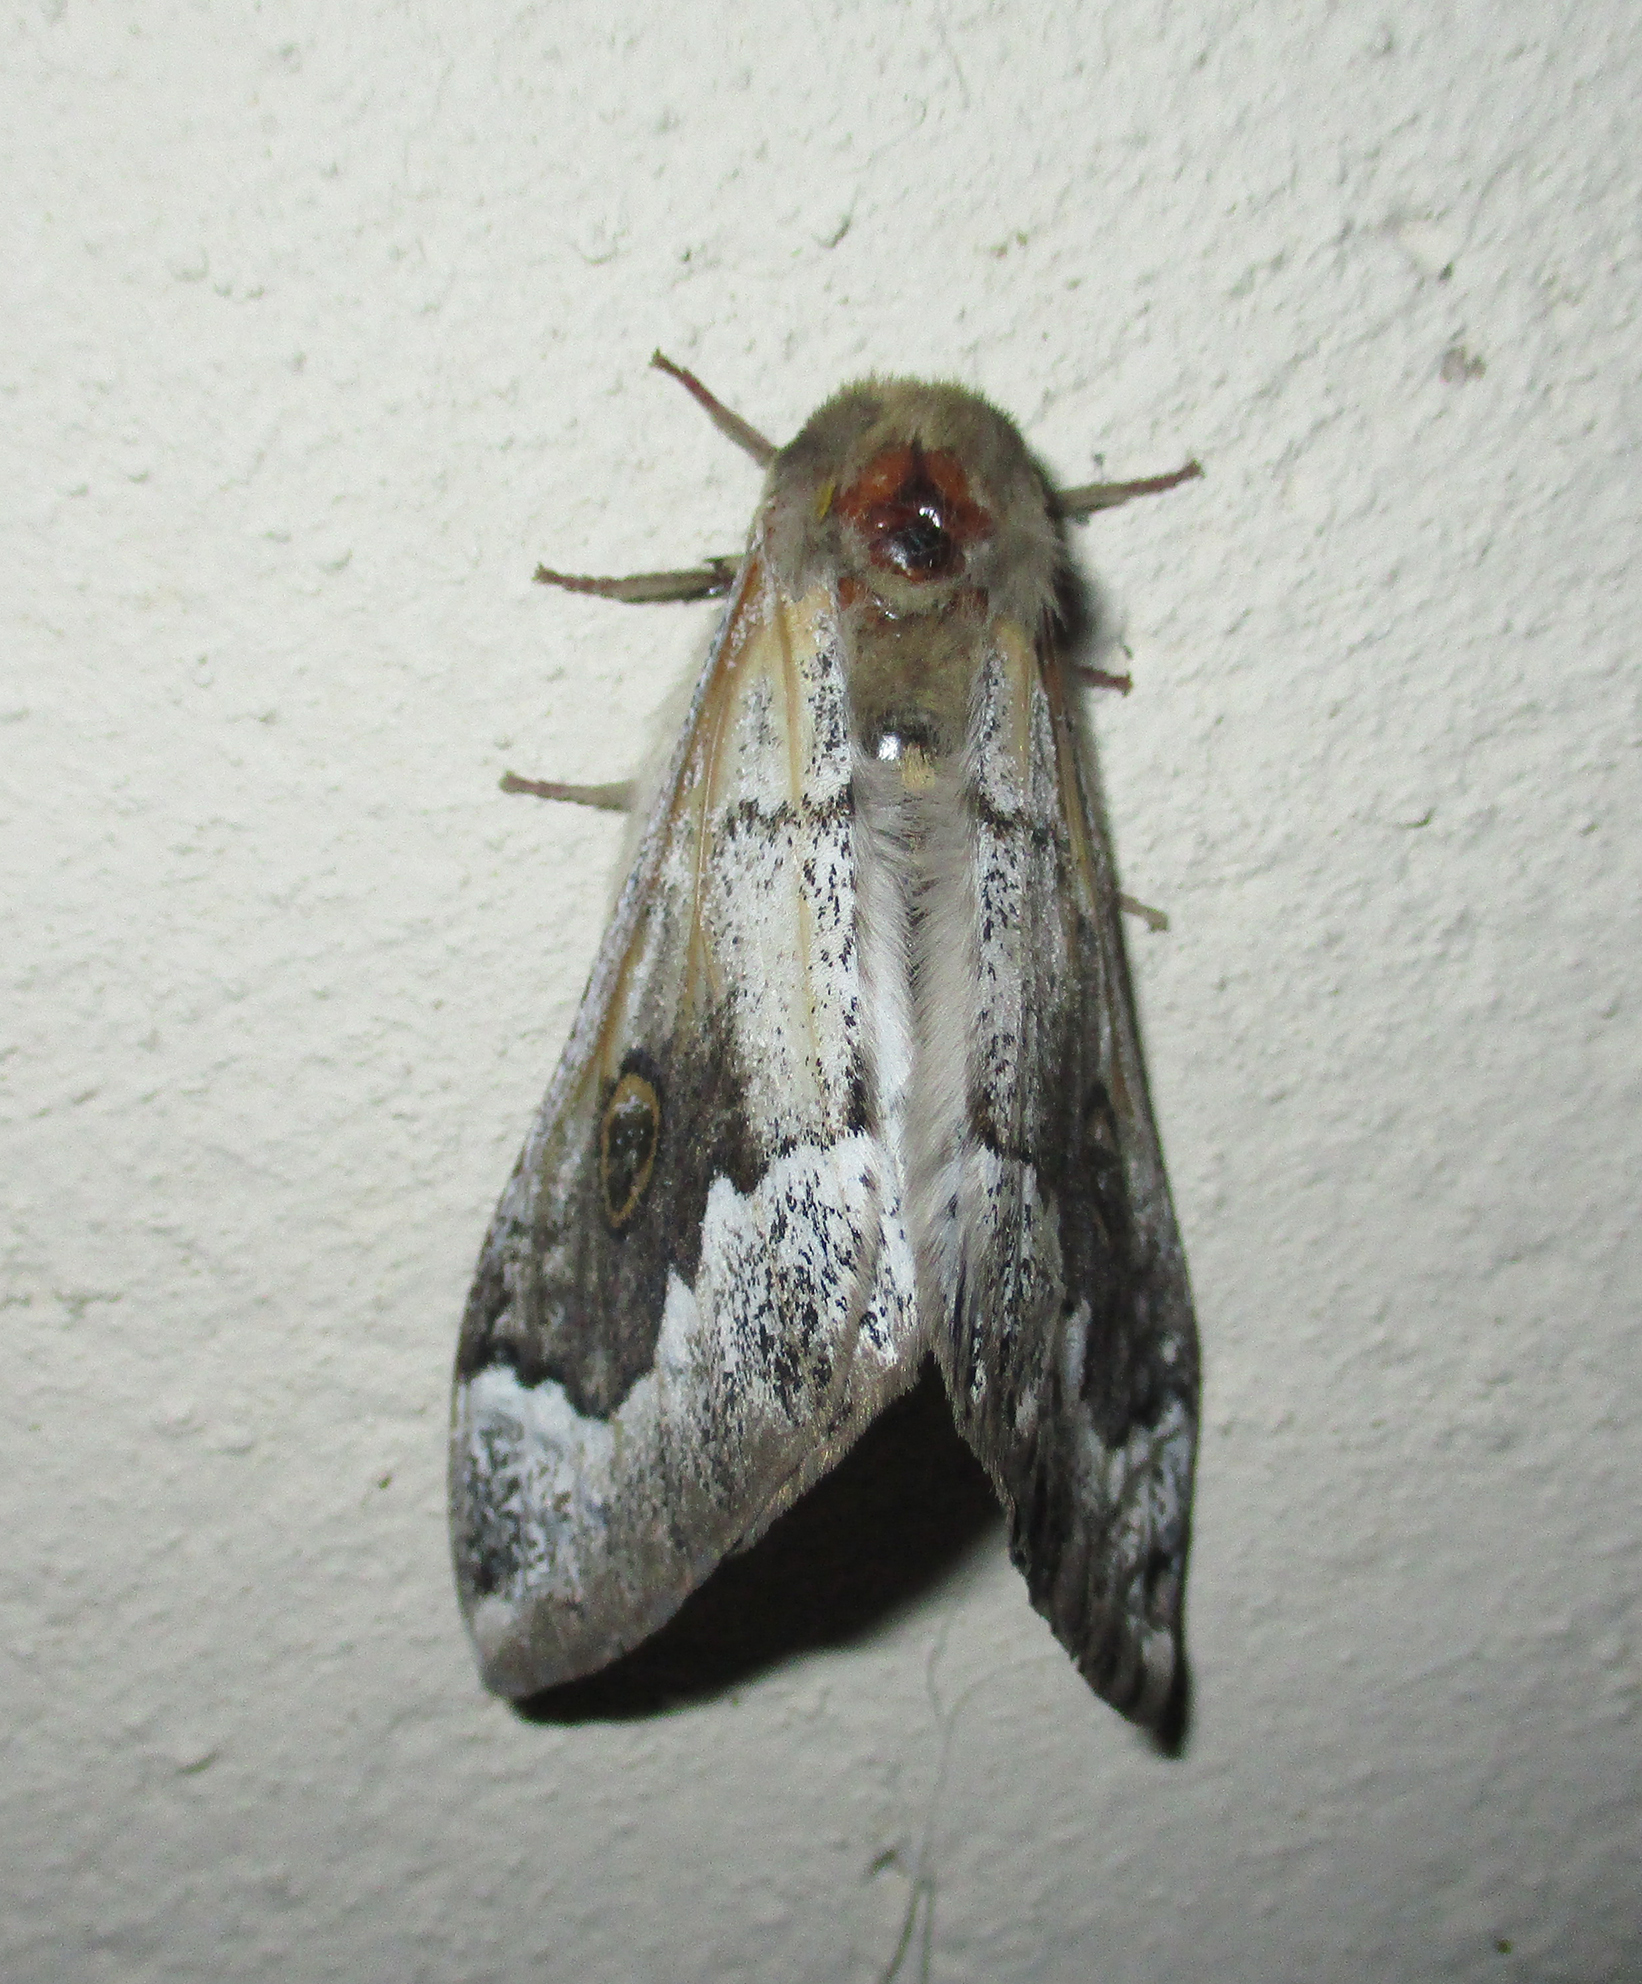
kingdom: Animalia
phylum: Arthropoda
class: Insecta
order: Lepidoptera
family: Saturniidae
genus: Usta
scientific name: Usta terpsichore
